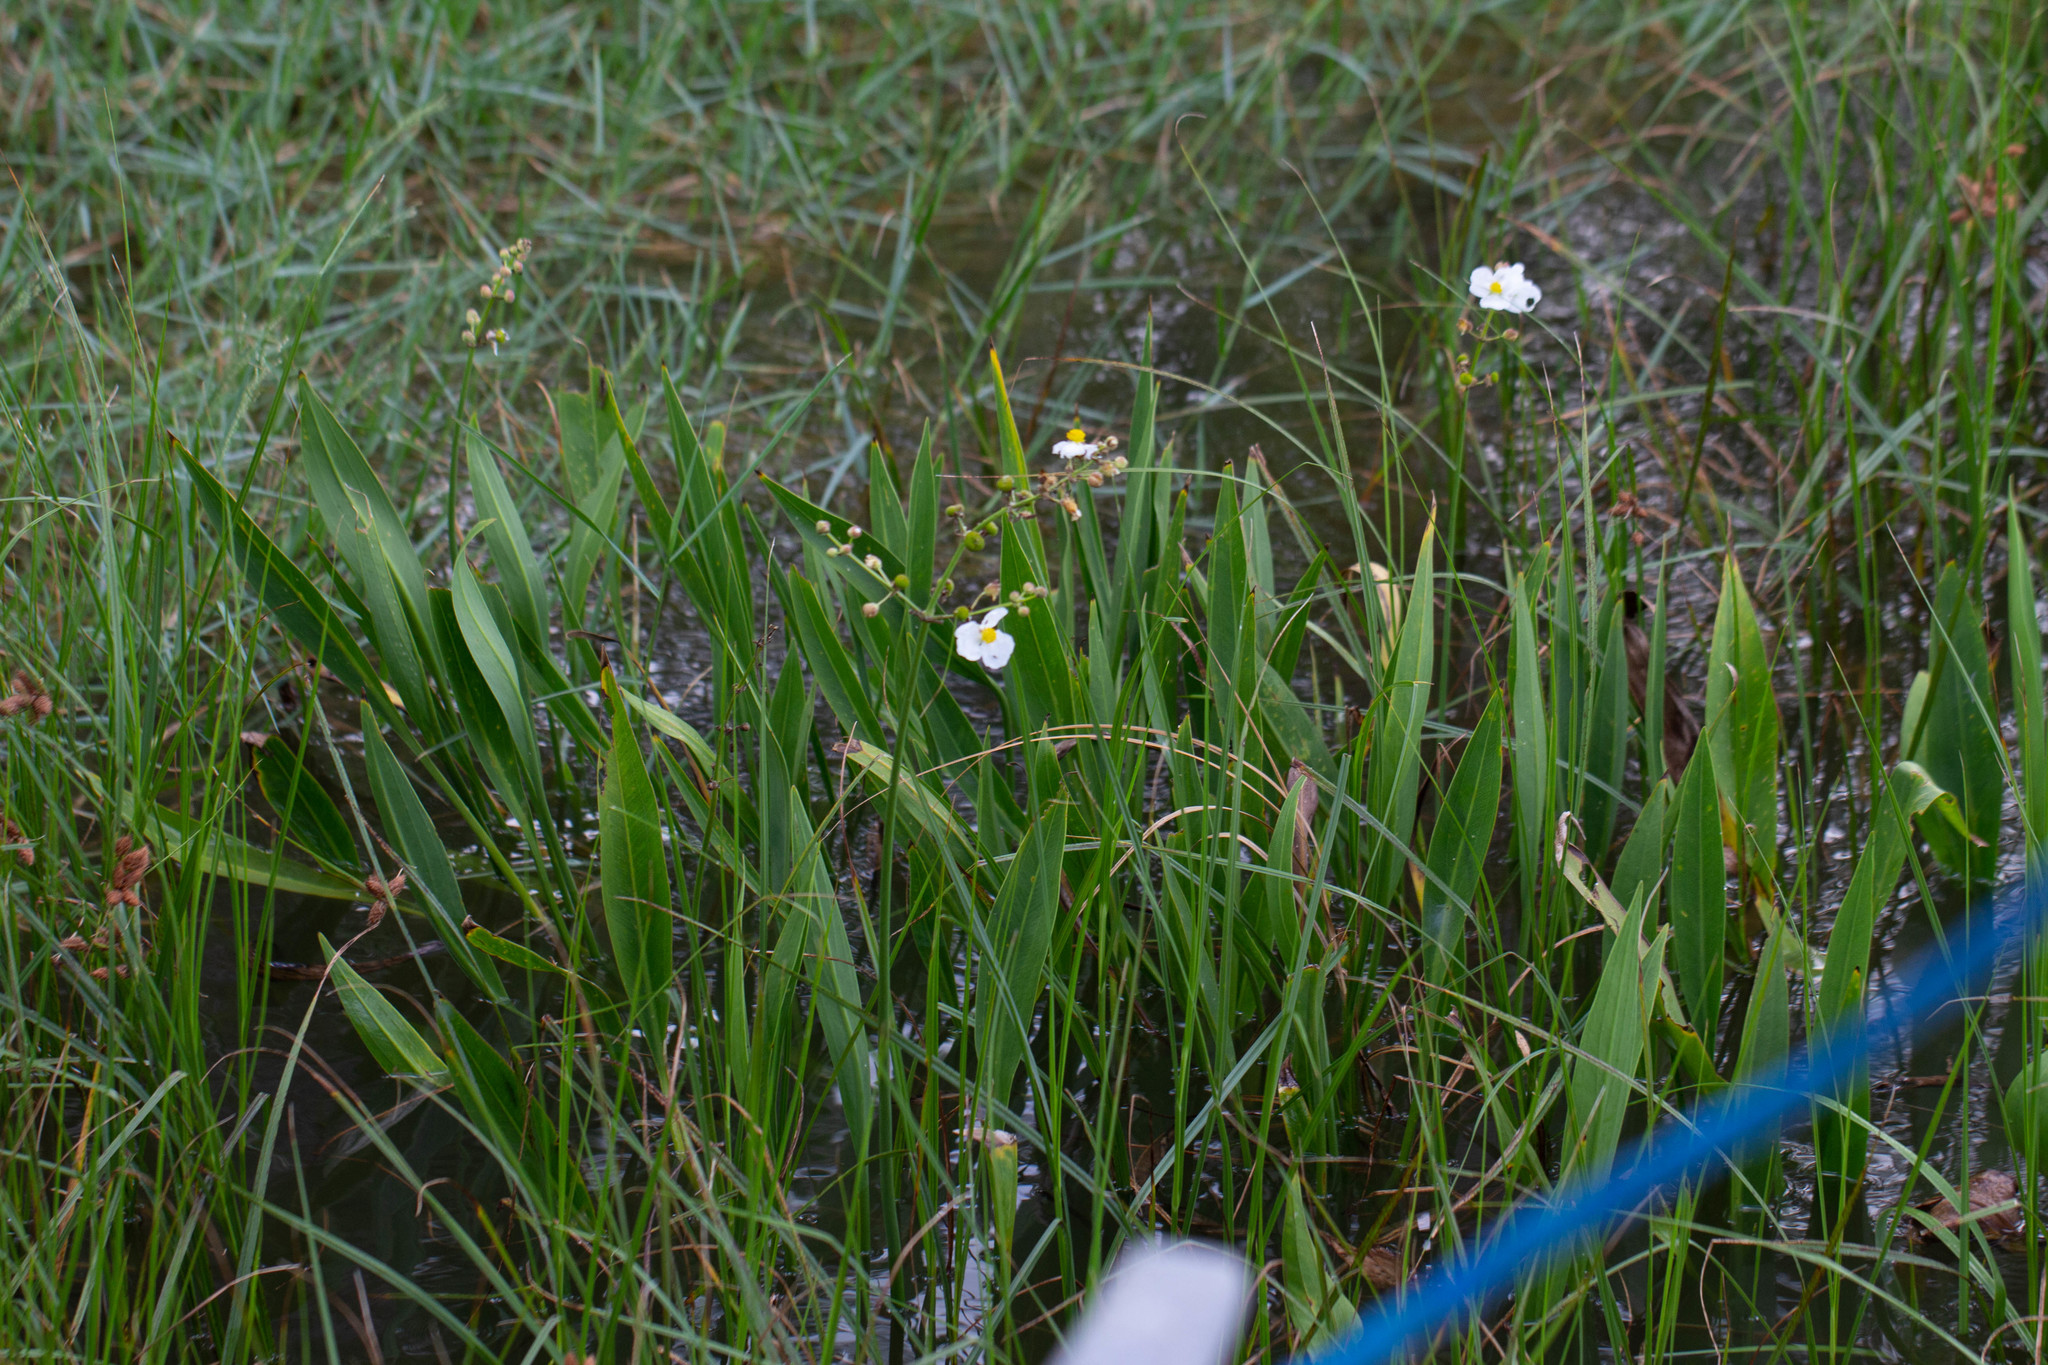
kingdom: Plantae
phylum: Tracheophyta
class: Liliopsida
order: Alismatales
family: Alismataceae
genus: Sagittaria
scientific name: Sagittaria lancifolia
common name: Lance-leaf arrowhead
